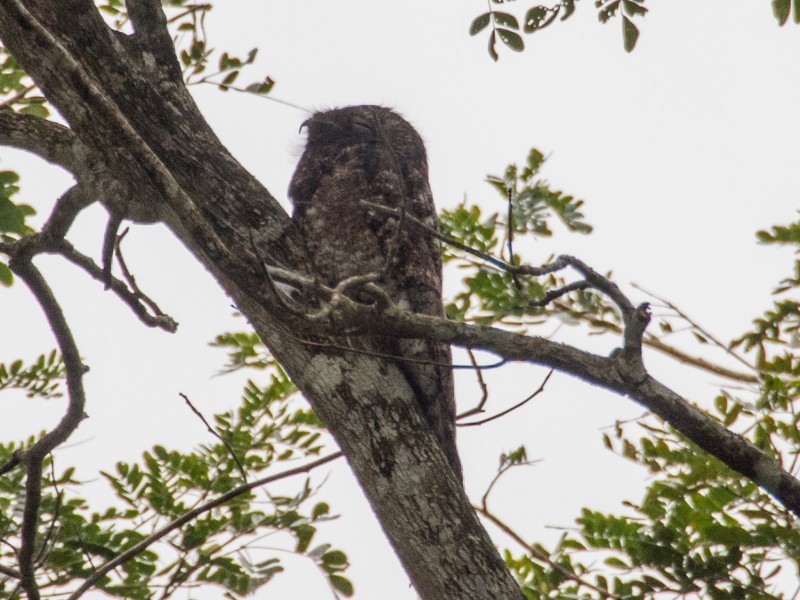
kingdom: Animalia
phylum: Chordata
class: Aves
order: Nyctibiiformes
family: Nyctibiidae
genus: Nyctibius
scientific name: Nyctibius grandis
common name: Great potoo
